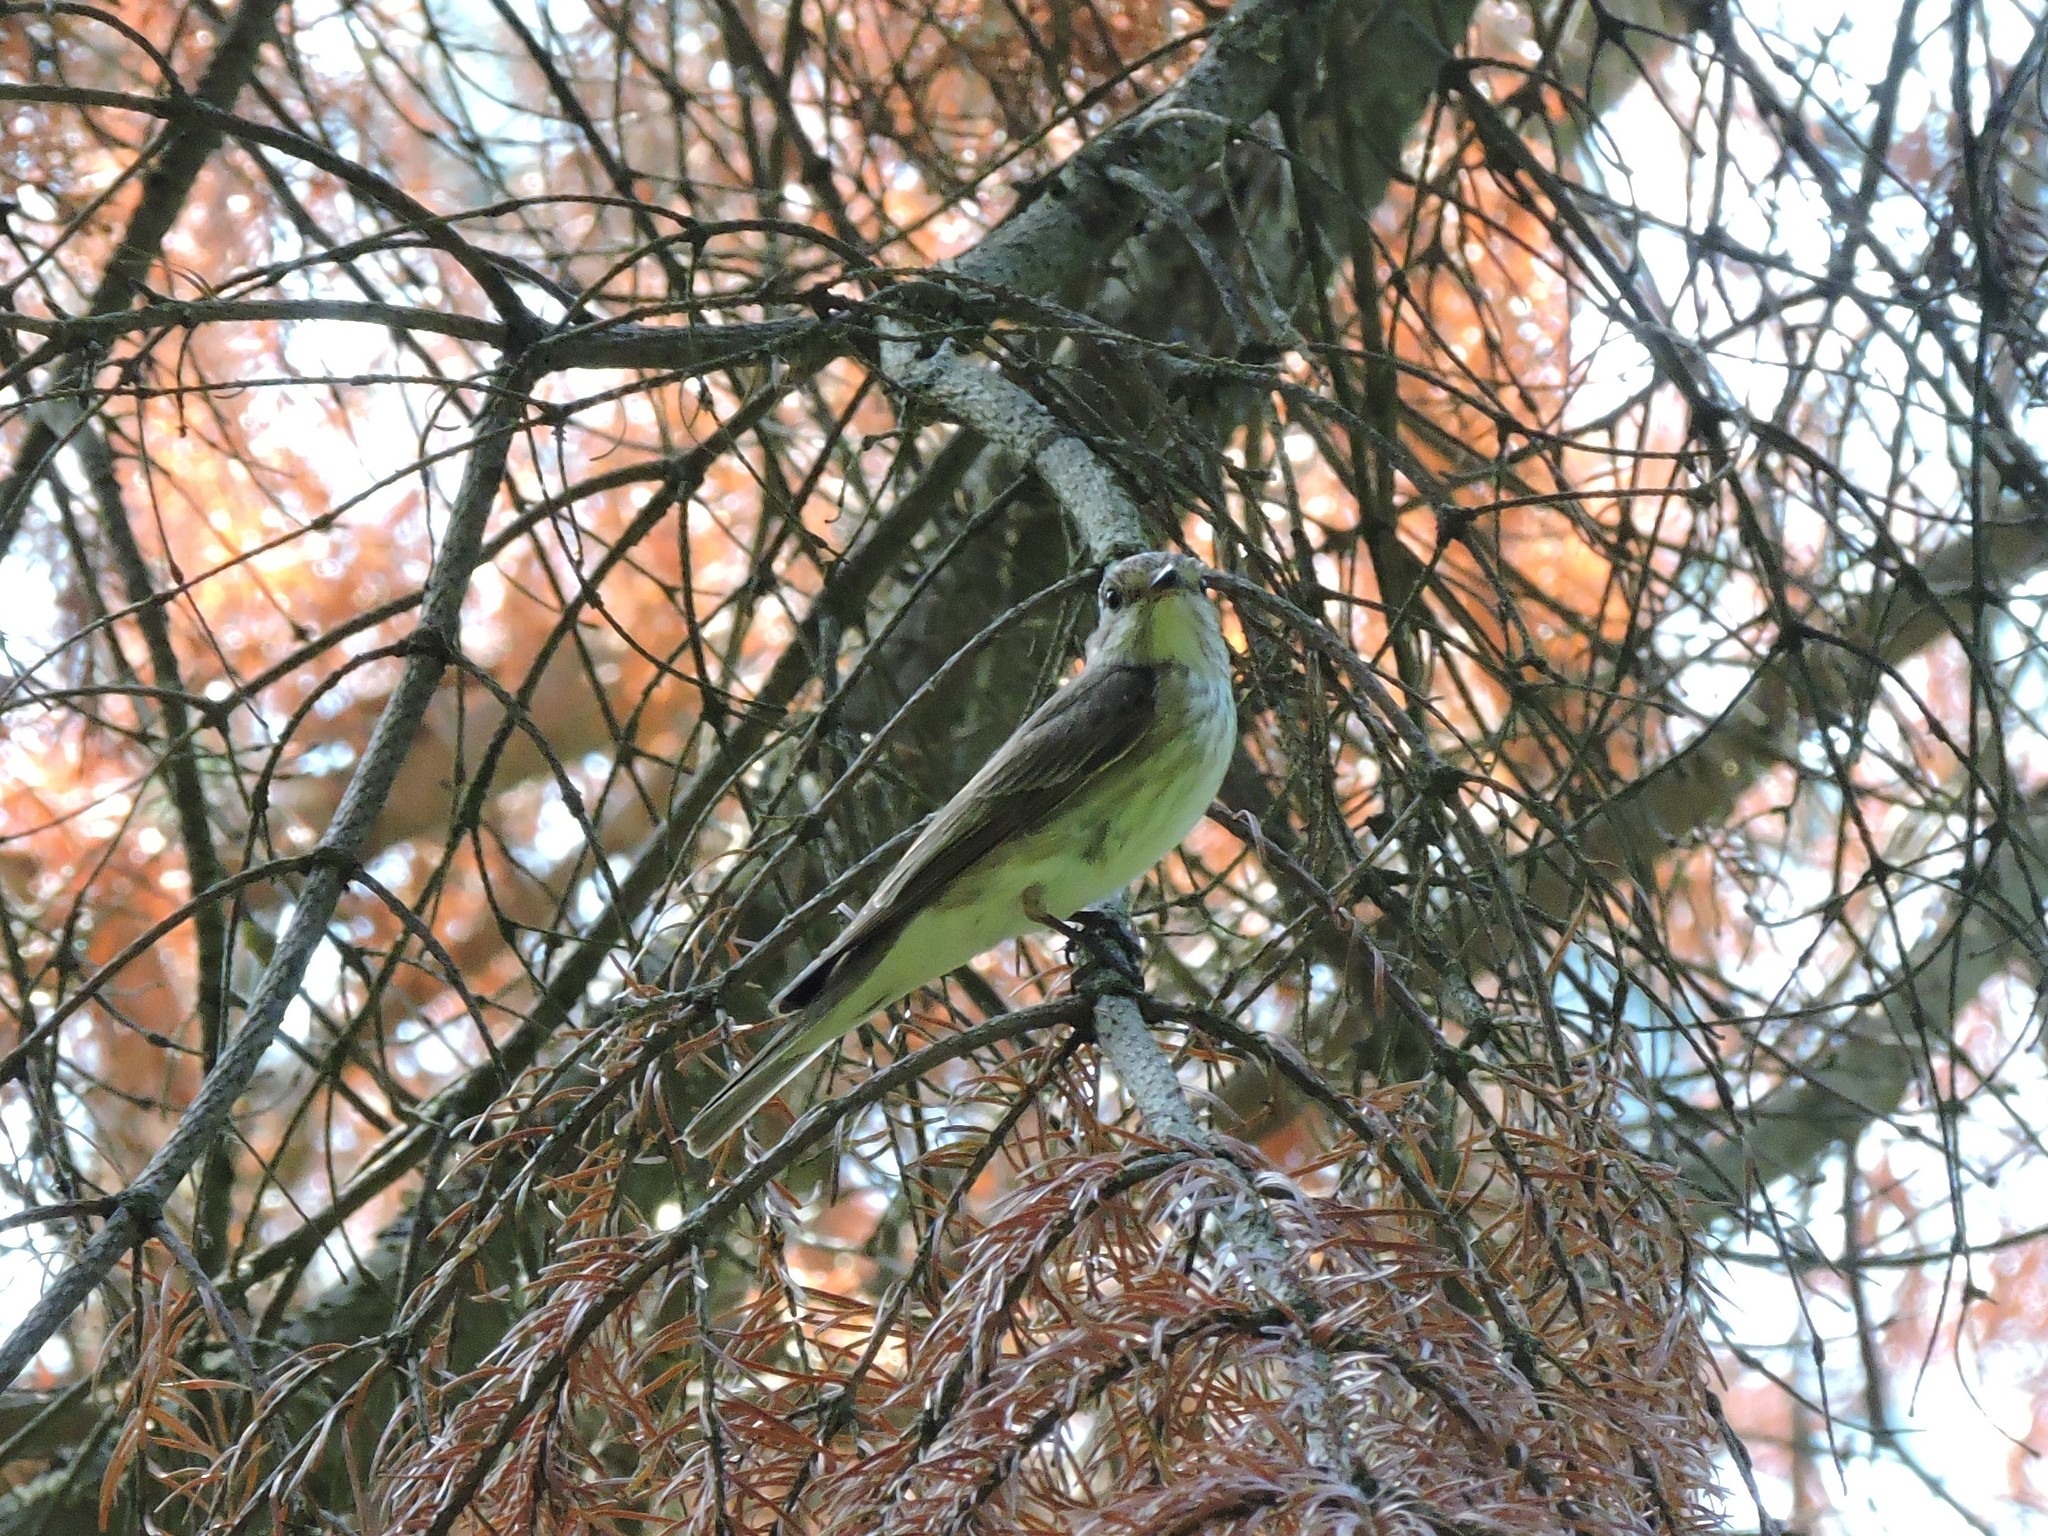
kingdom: Animalia
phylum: Chordata
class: Aves
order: Passeriformes
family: Muscicapidae
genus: Muscicapa
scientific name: Muscicapa striata
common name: Spotted flycatcher
